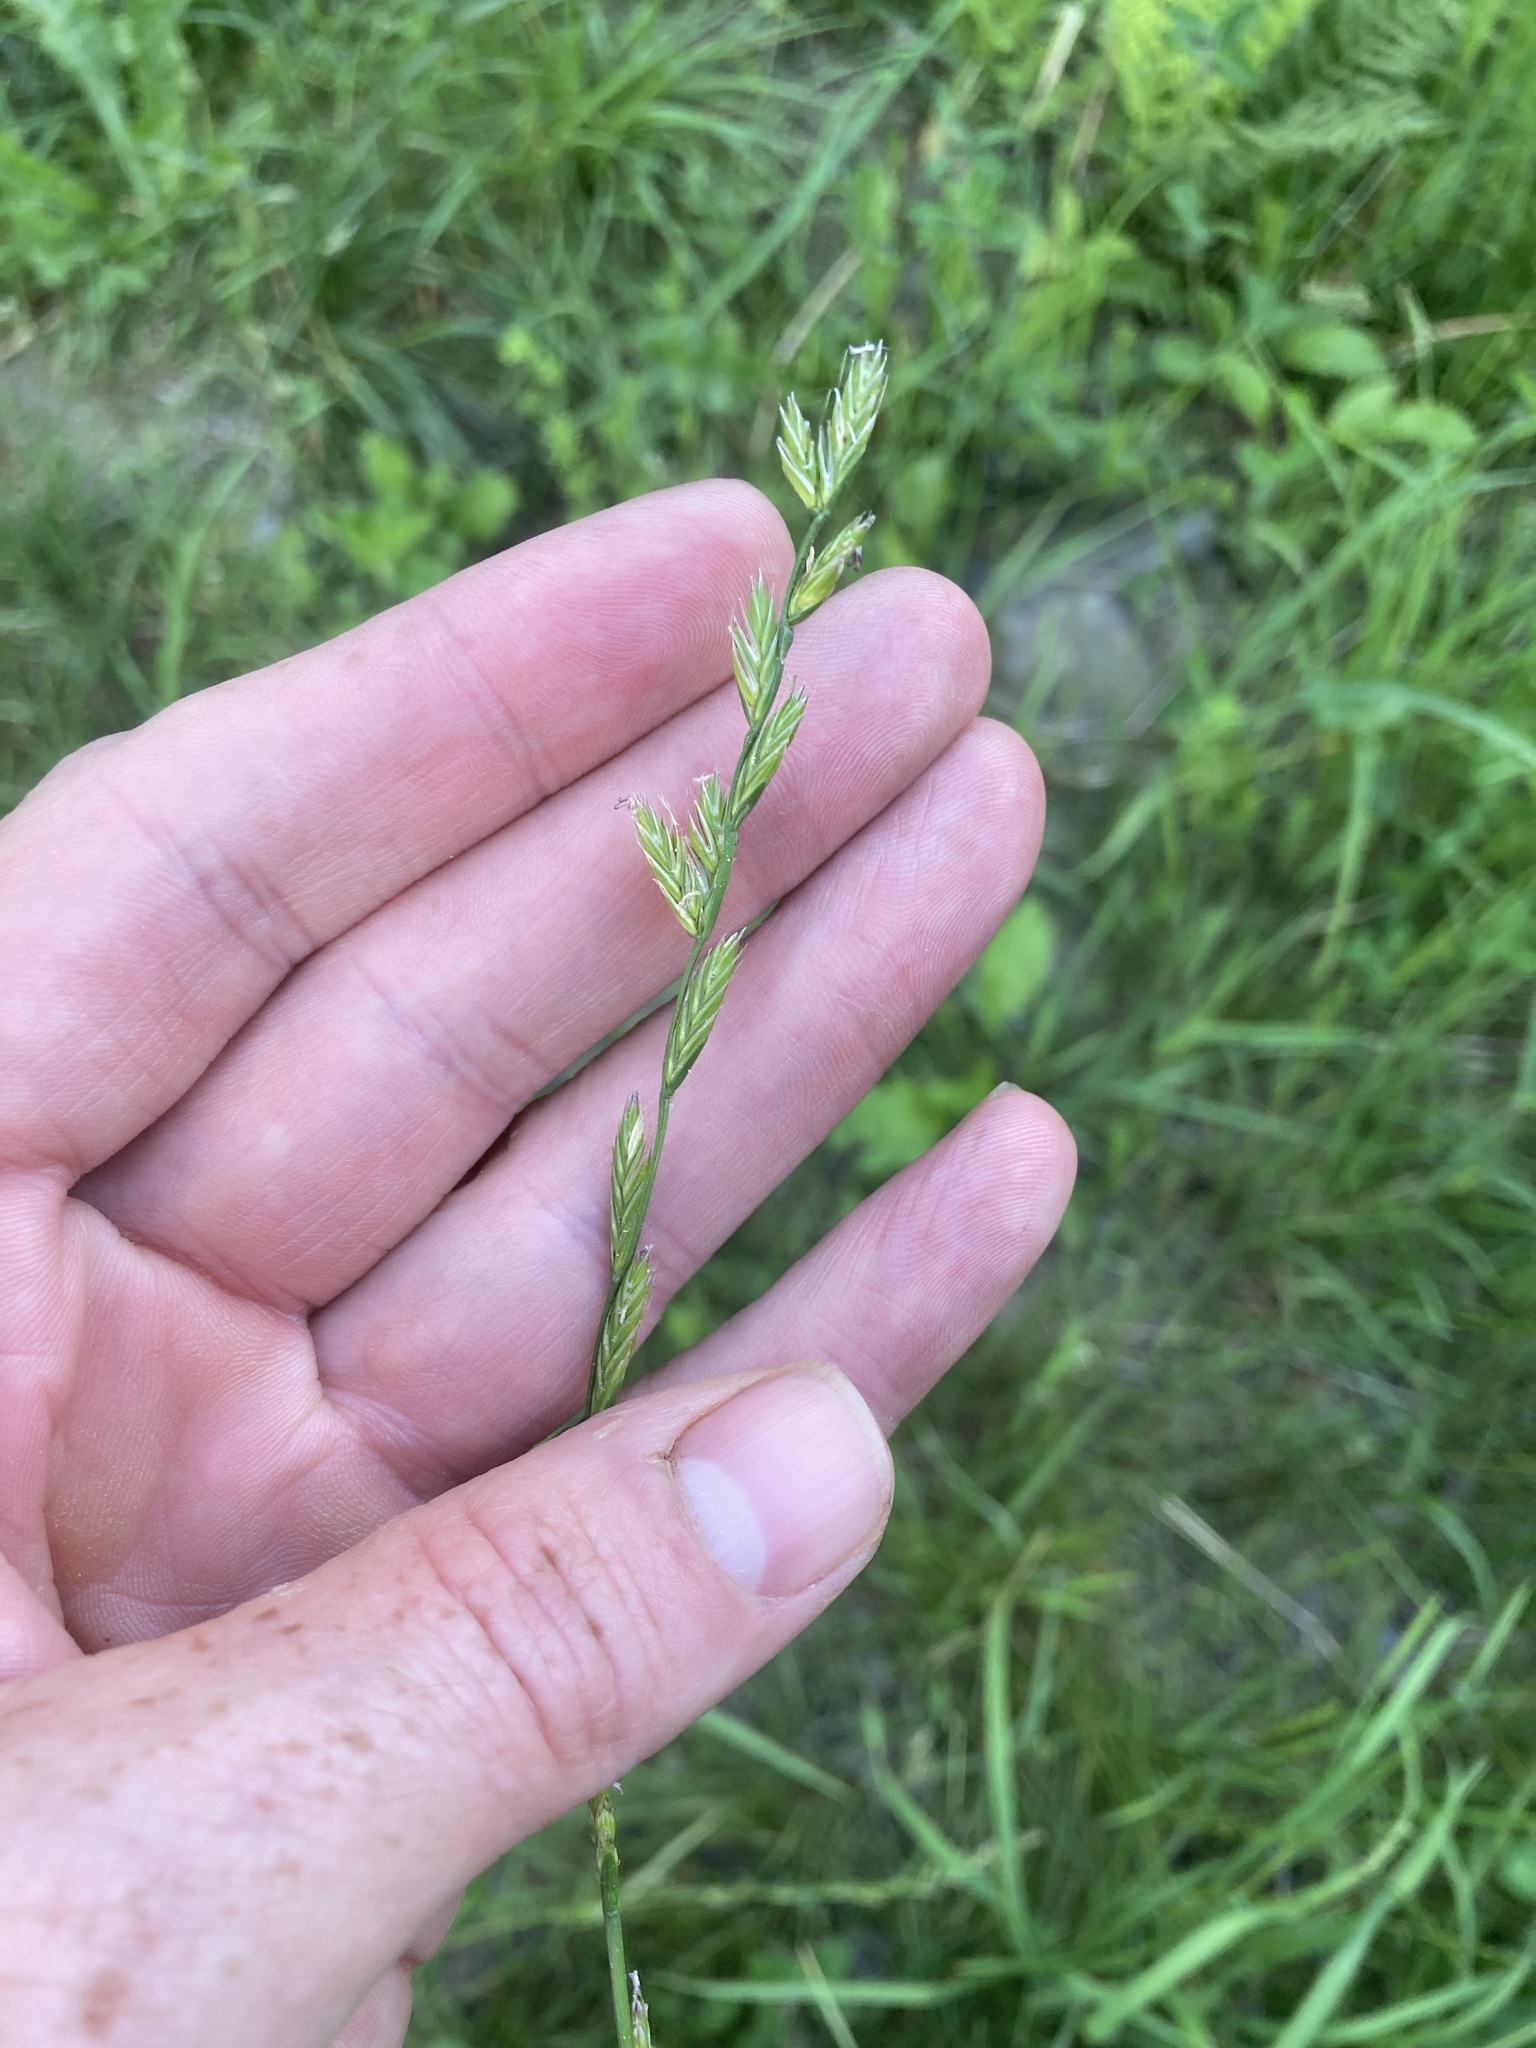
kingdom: Plantae
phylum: Tracheophyta
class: Liliopsida
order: Poales
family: Poaceae
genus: Lolium
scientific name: Lolium
